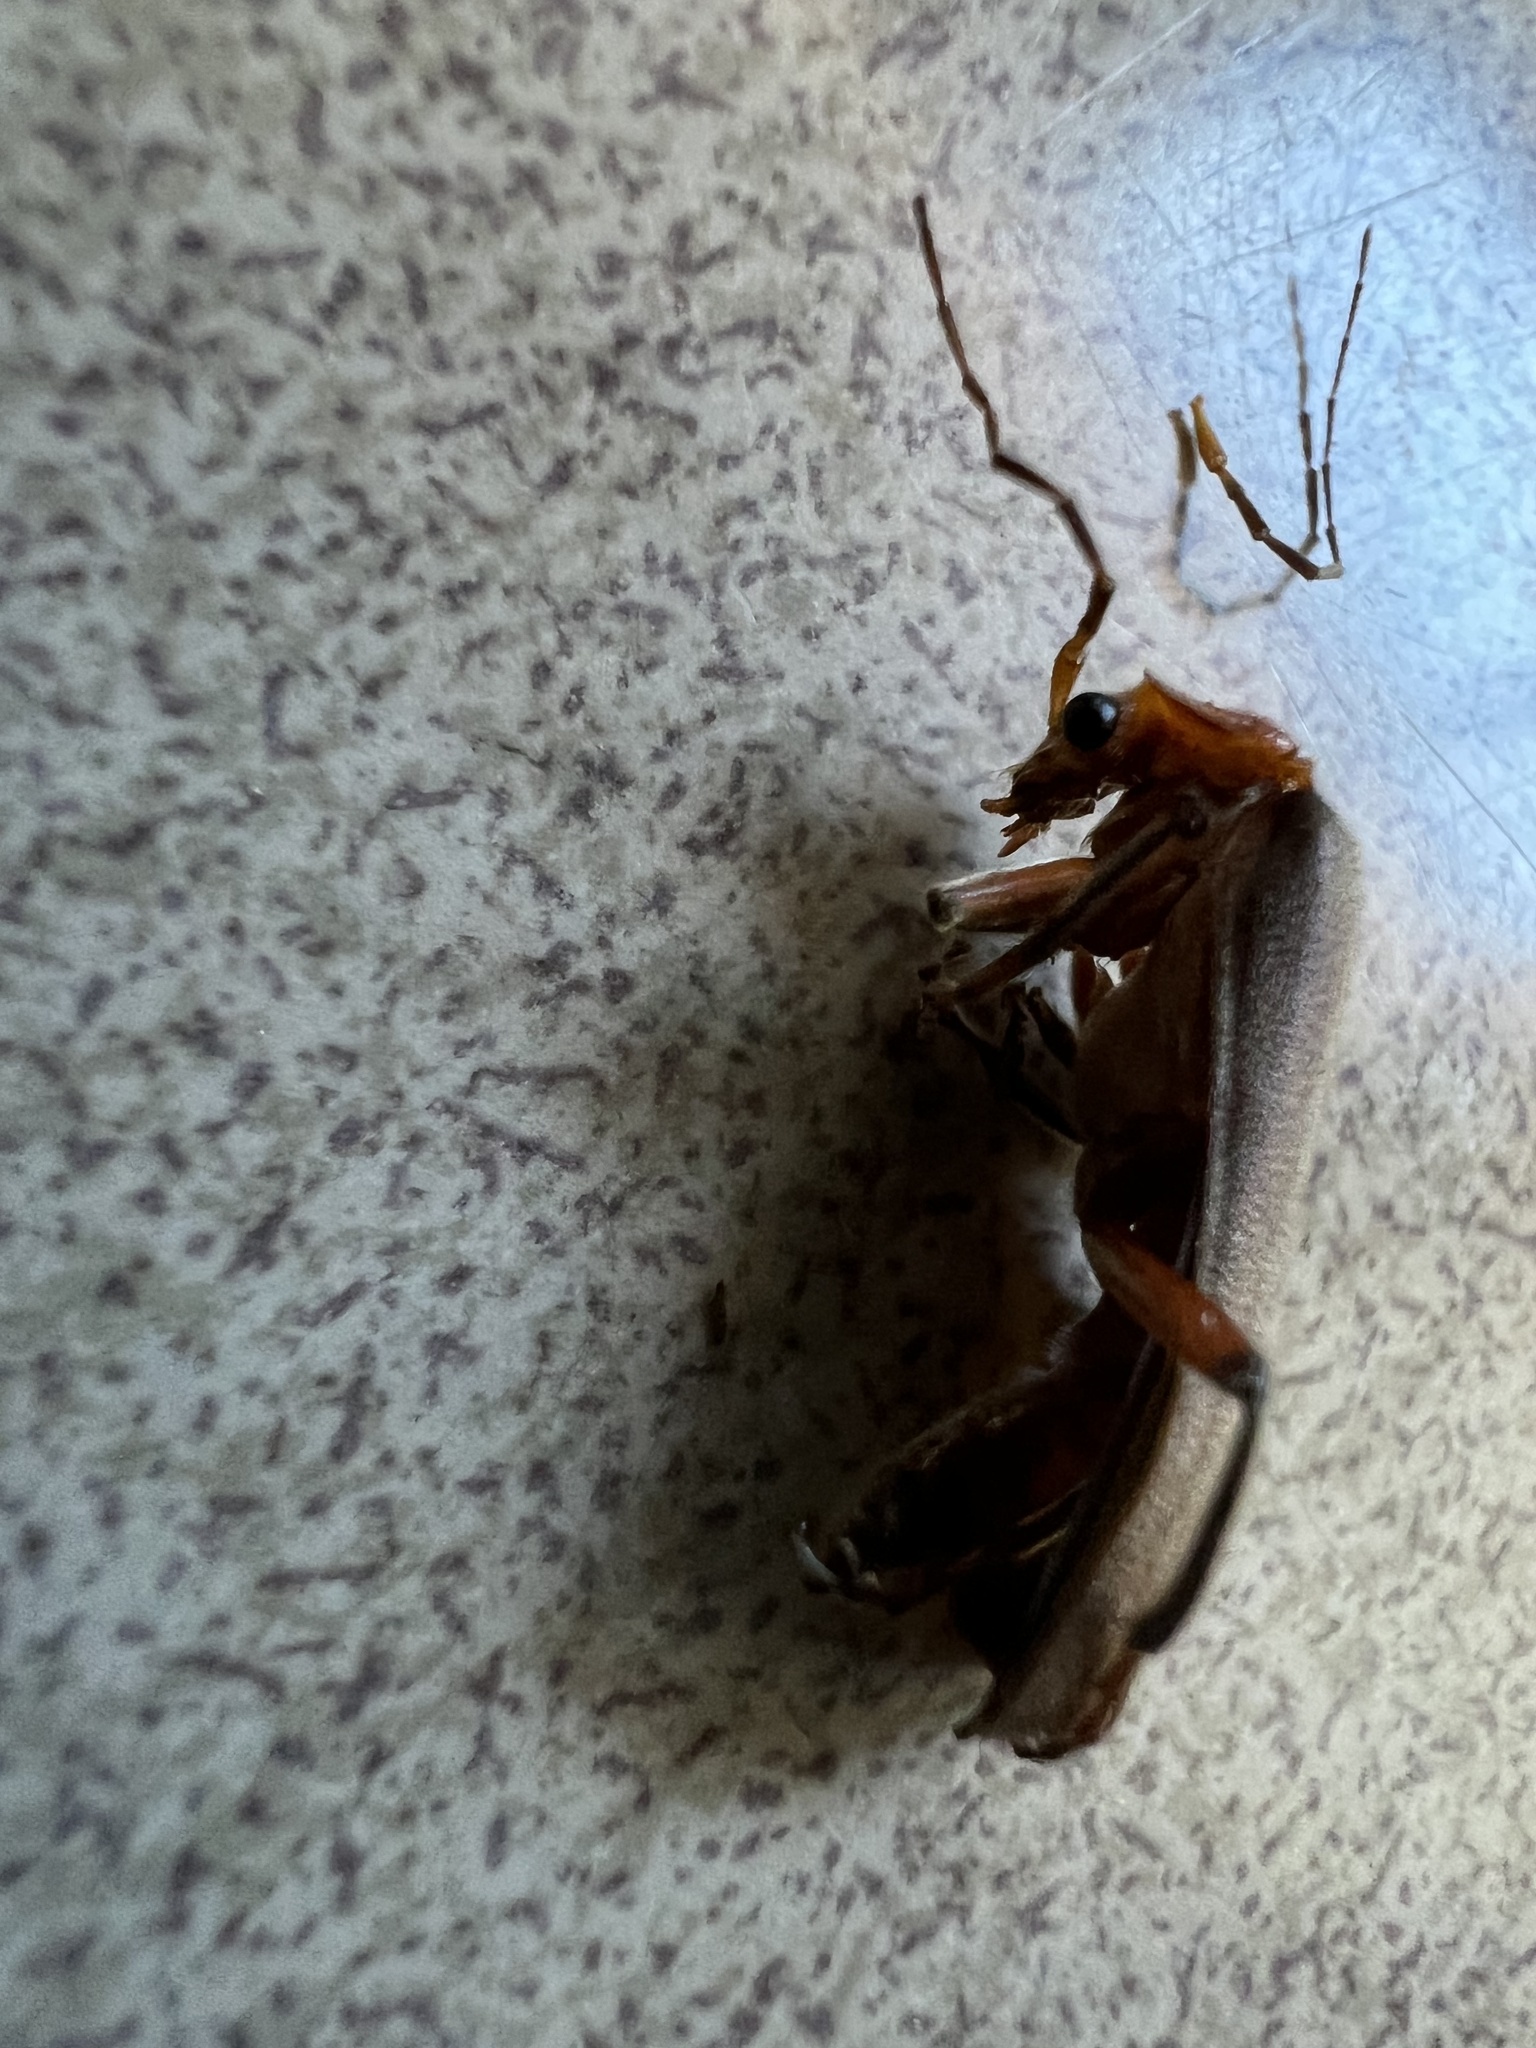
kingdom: Animalia
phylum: Arthropoda
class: Insecta
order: Coleoptera
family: Cantharidae
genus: Pacificanthia
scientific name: Pacificanthia consors
